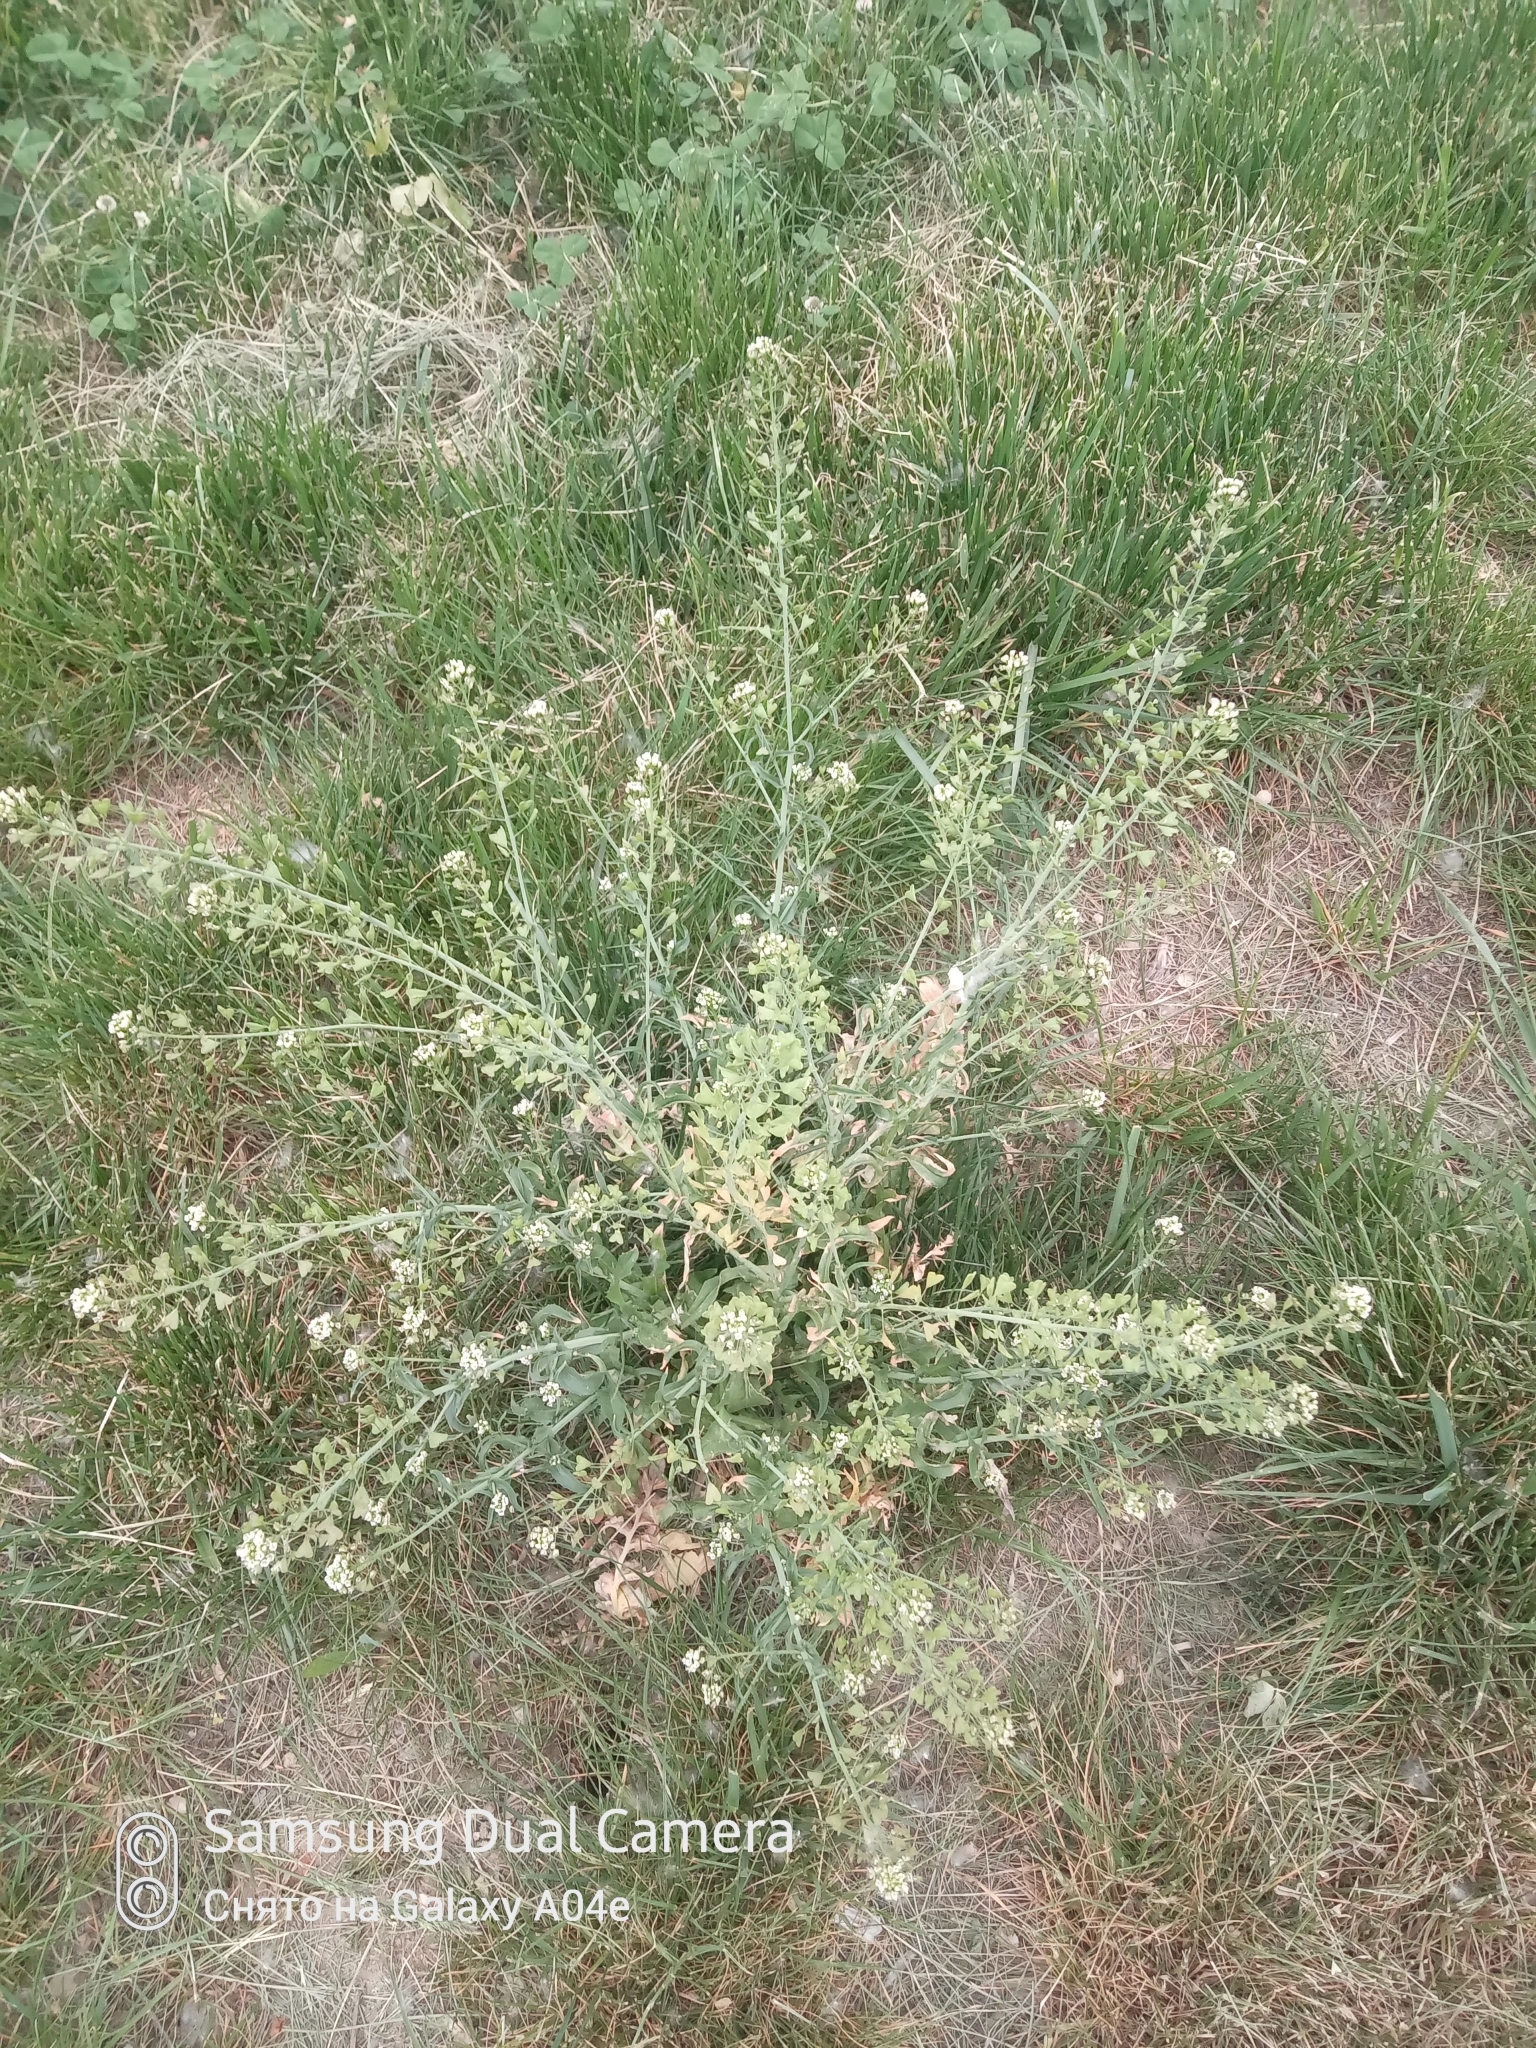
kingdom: Plantae
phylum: Tracheophyta
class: Magnoliopsida
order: Brassicales
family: Brassicaceae
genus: Capsella
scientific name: Capsella bursa-pastoris
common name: Shepherd's purse
